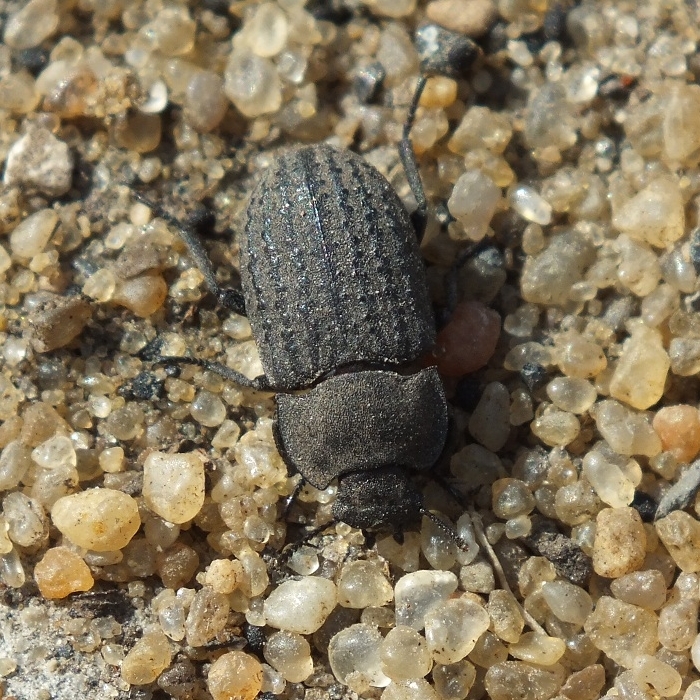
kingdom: Animalia
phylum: Arthropoda
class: Insecta
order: Coleoptera
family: Tenebrionidae
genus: Opatrum
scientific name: Opatrum sabulosum
